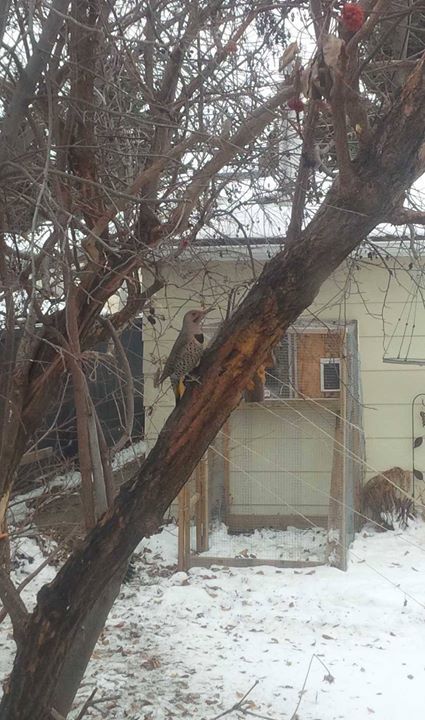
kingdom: Animalia
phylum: Chordata
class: Aves
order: Piciformes
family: Picidae
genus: Colaptes
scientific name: Colaptes auratus
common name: Northern flicker
